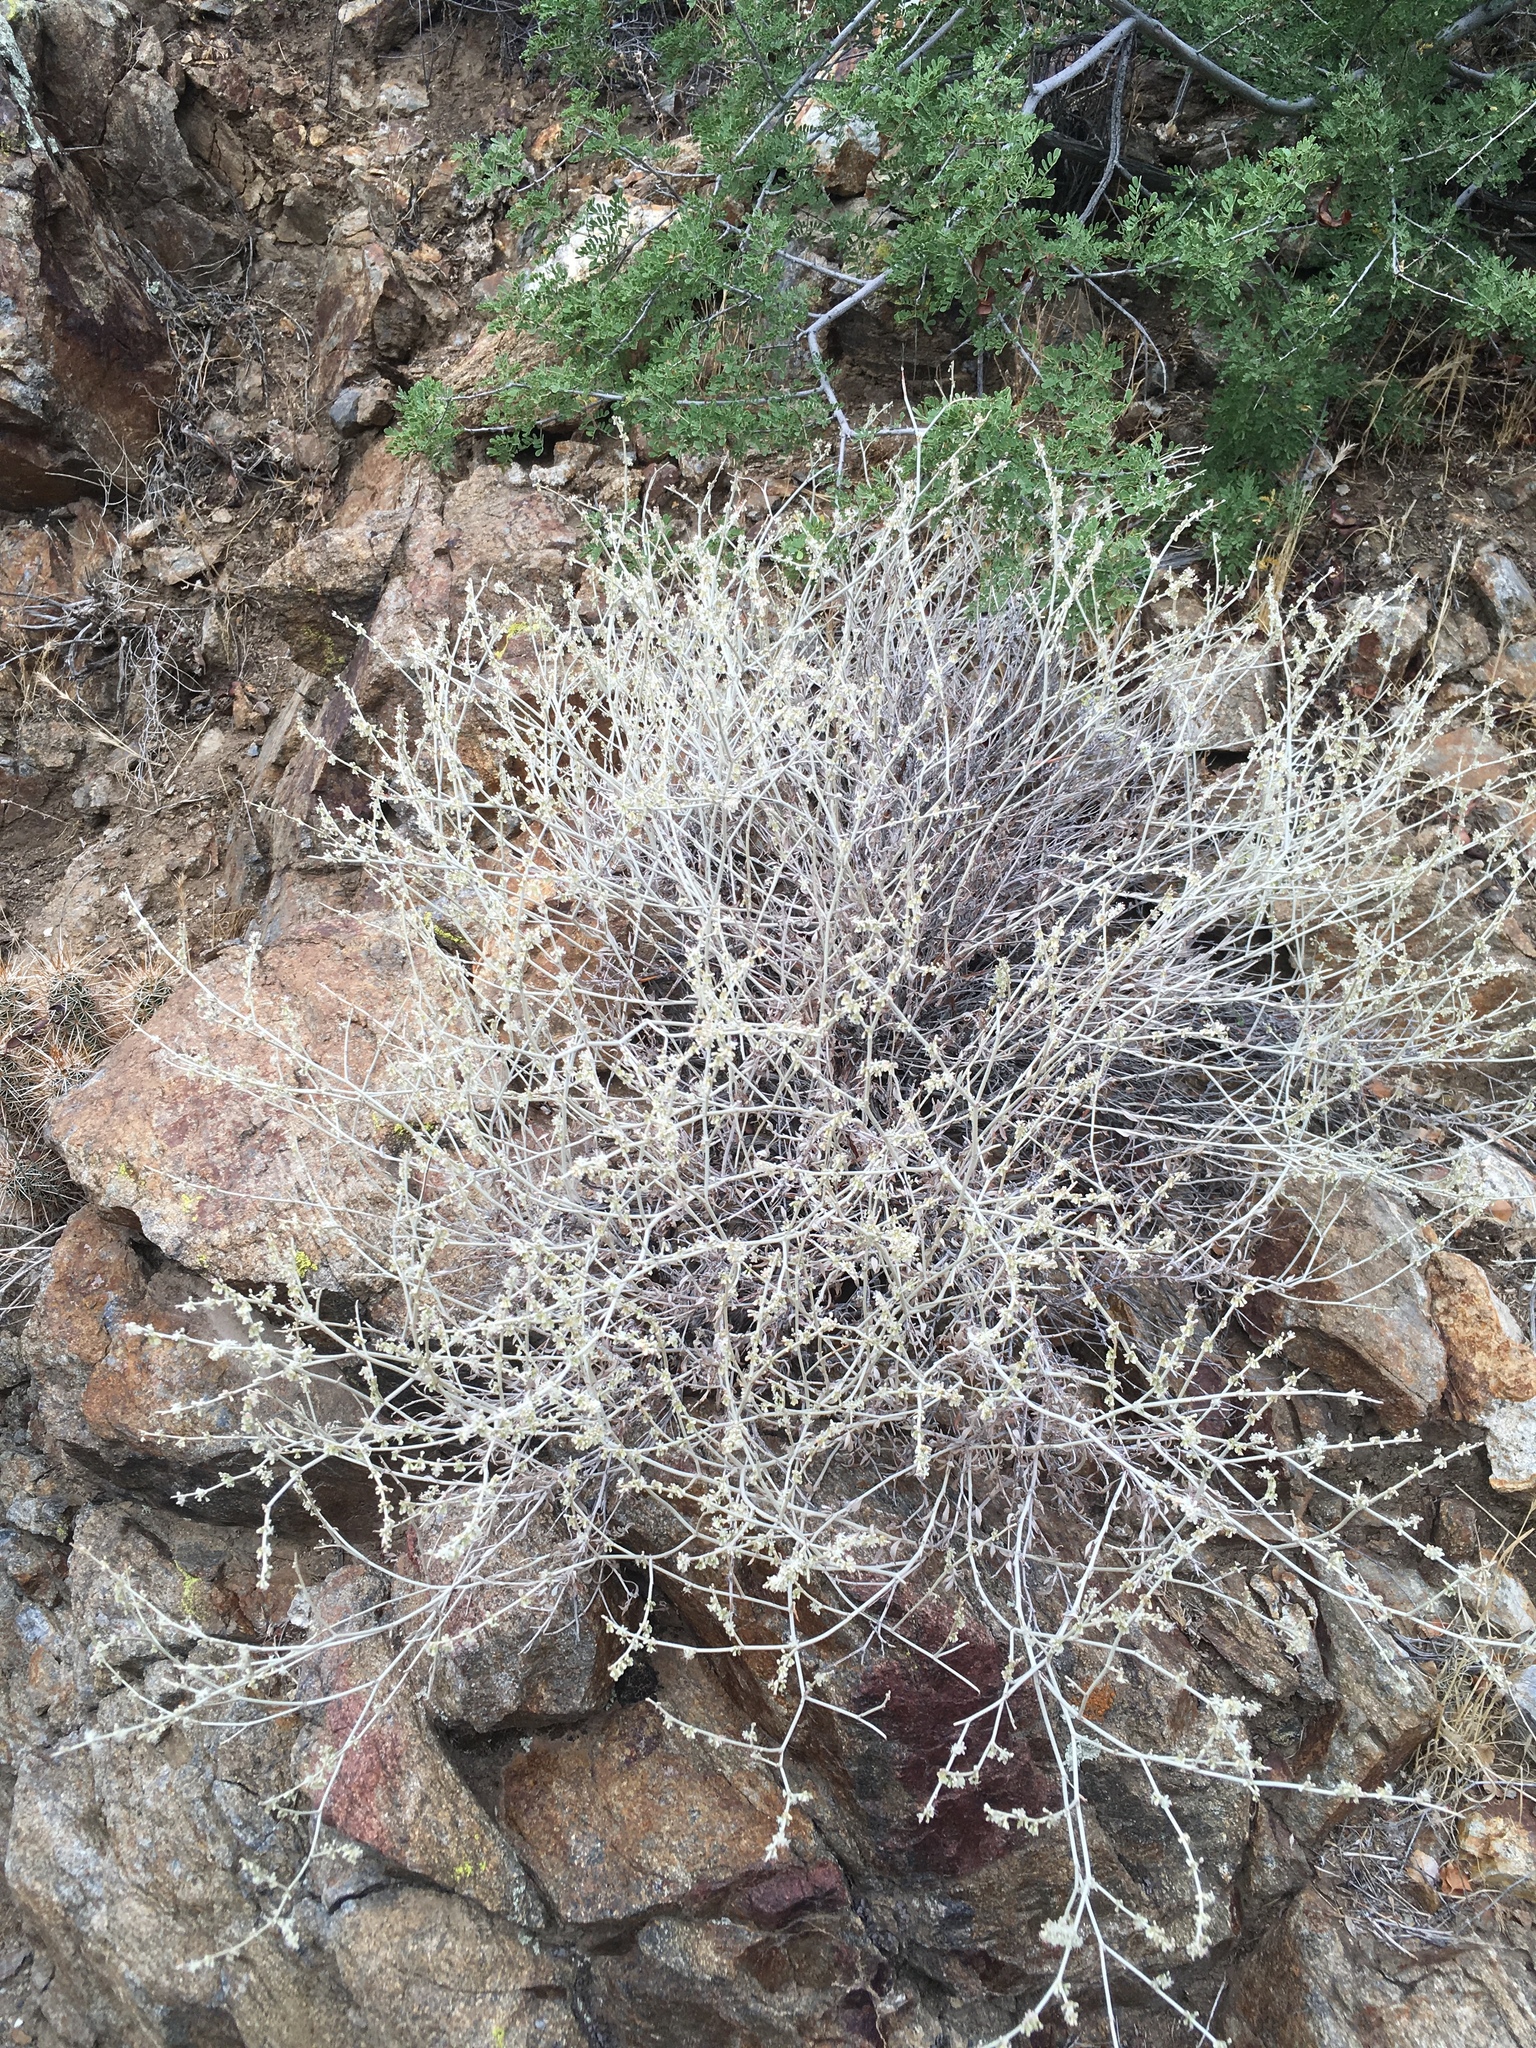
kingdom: Plantae
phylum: Tracheophyta
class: Magnoliopsida
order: Caryophyllales
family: Polygonaceae
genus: Eriogonum
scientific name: Eriogonum wrightii
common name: Bastard-sage
